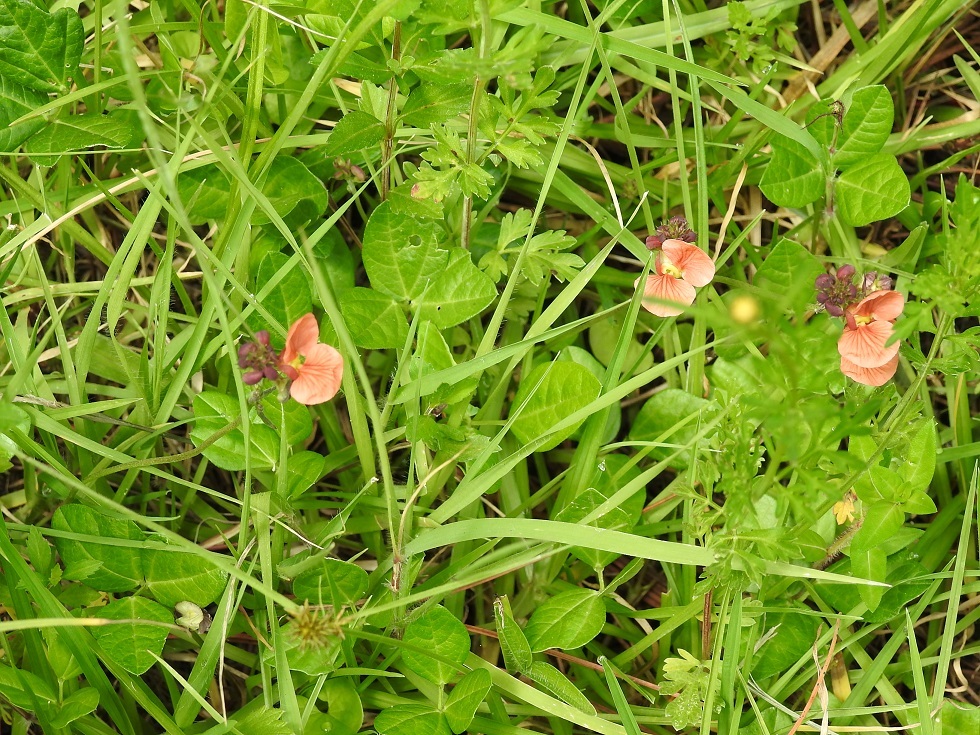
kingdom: Plantae
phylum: Tracheophyta
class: Magnoliopsida
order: Fabales
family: Fabaceae
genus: Macroptilium
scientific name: Macroptilium gibbosifolium
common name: Variableleaf bushbean
